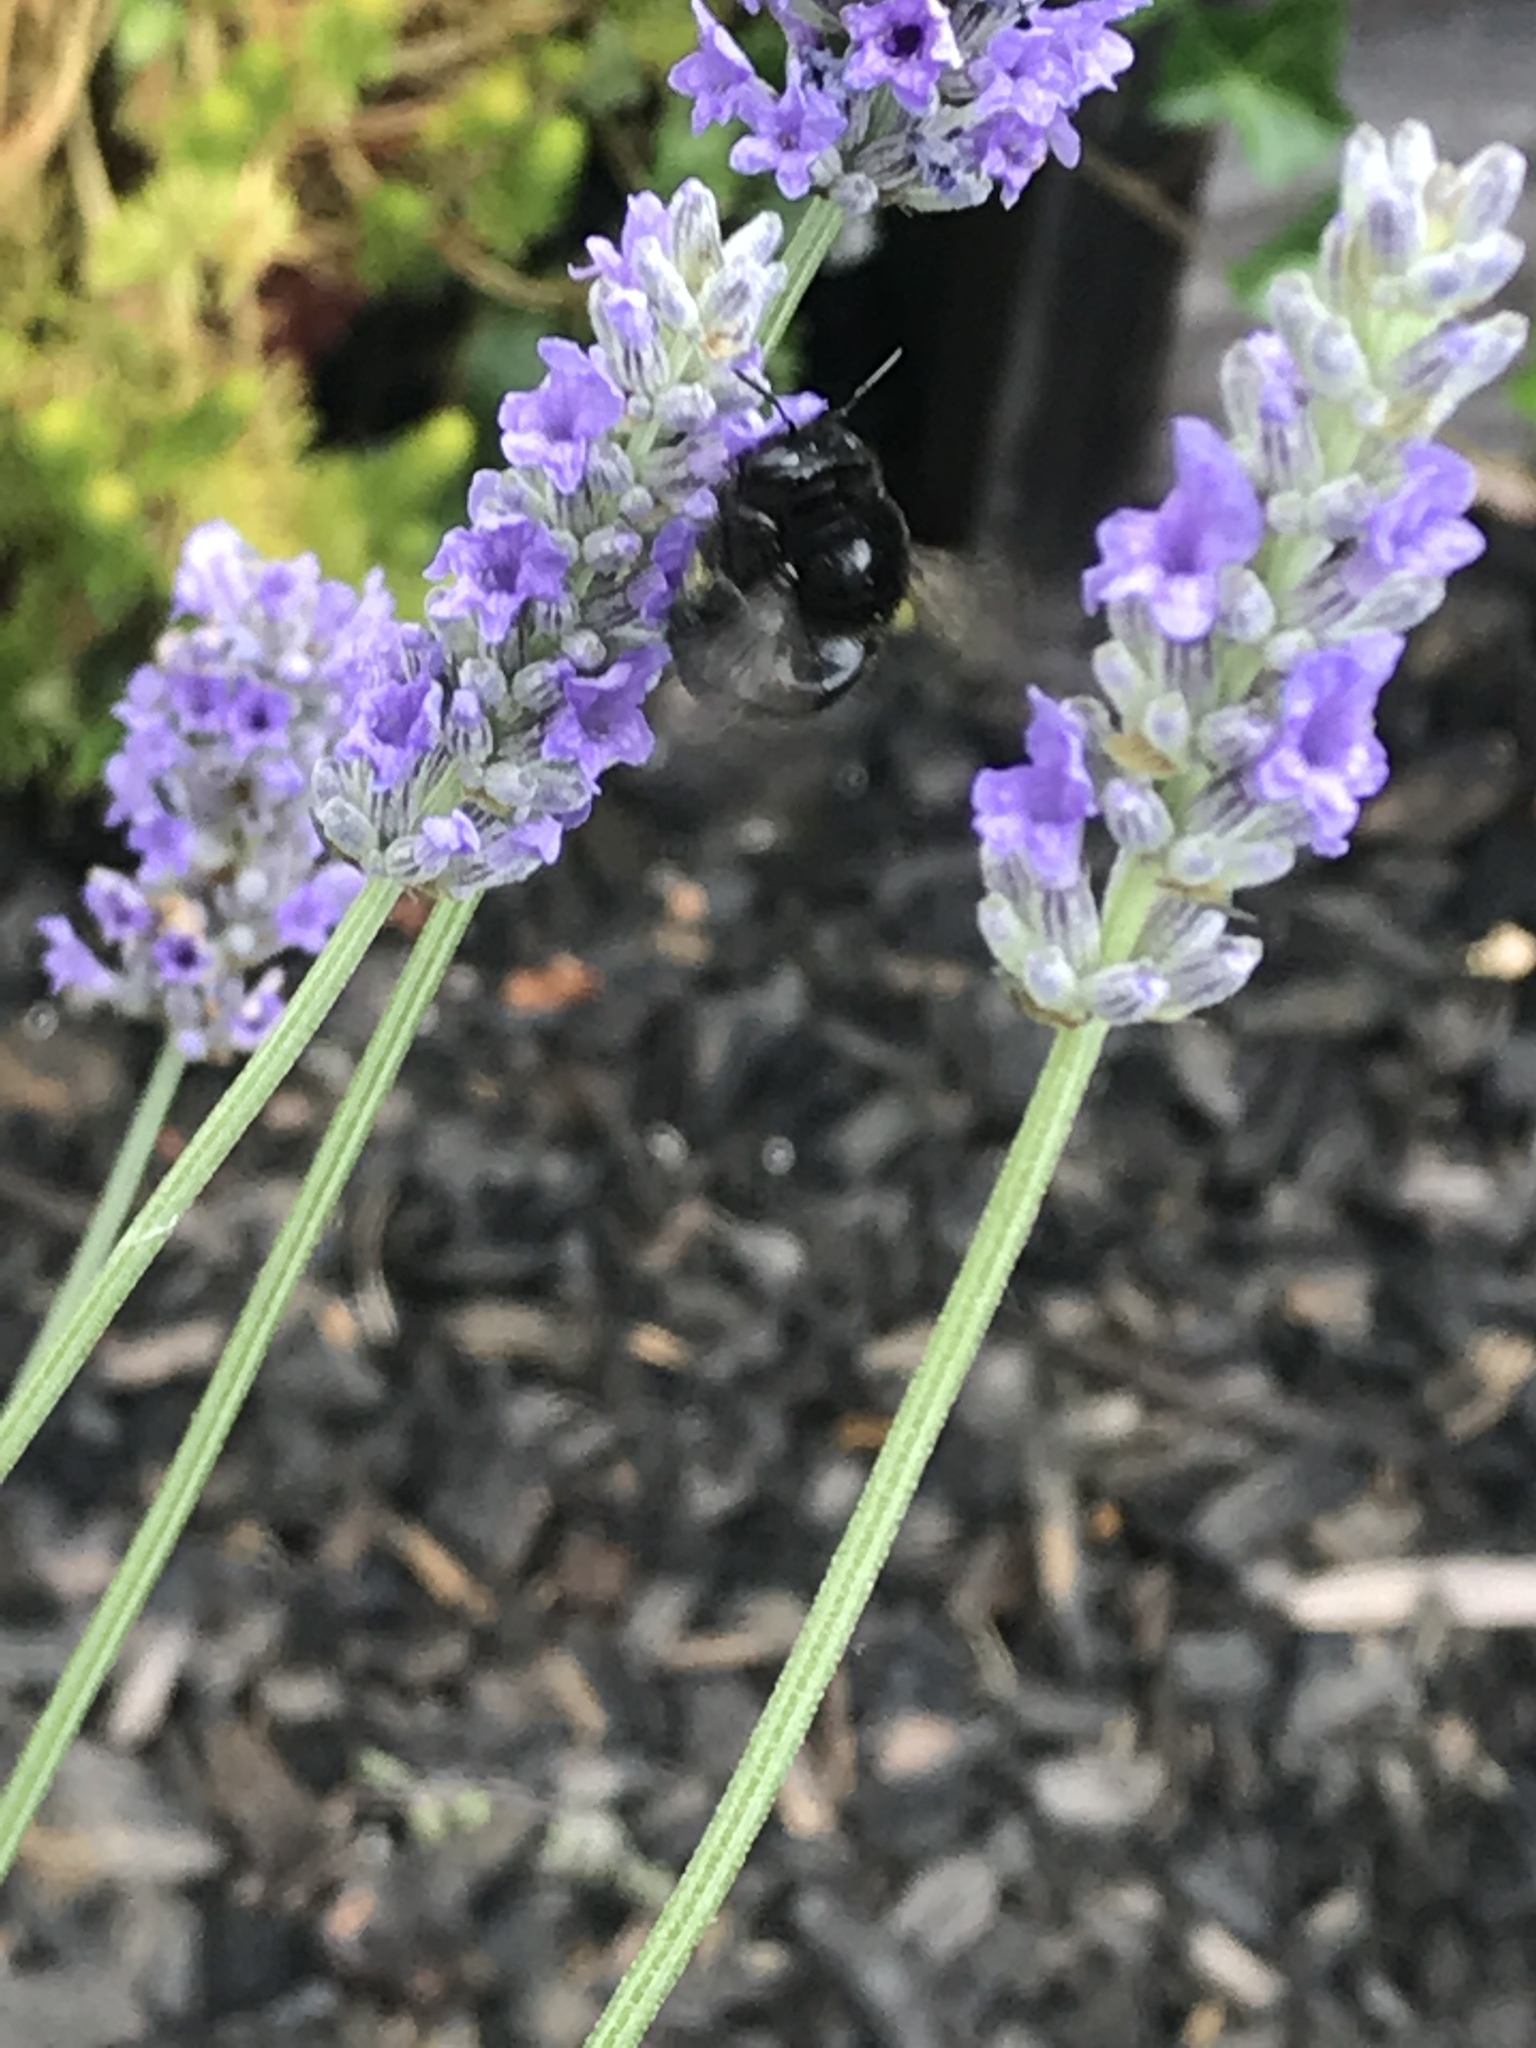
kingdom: Animalia
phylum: Arthropoda
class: Insecta
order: Hymenoptera
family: Apidae
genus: Xylocopa
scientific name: Xylocopa tabaniformis
